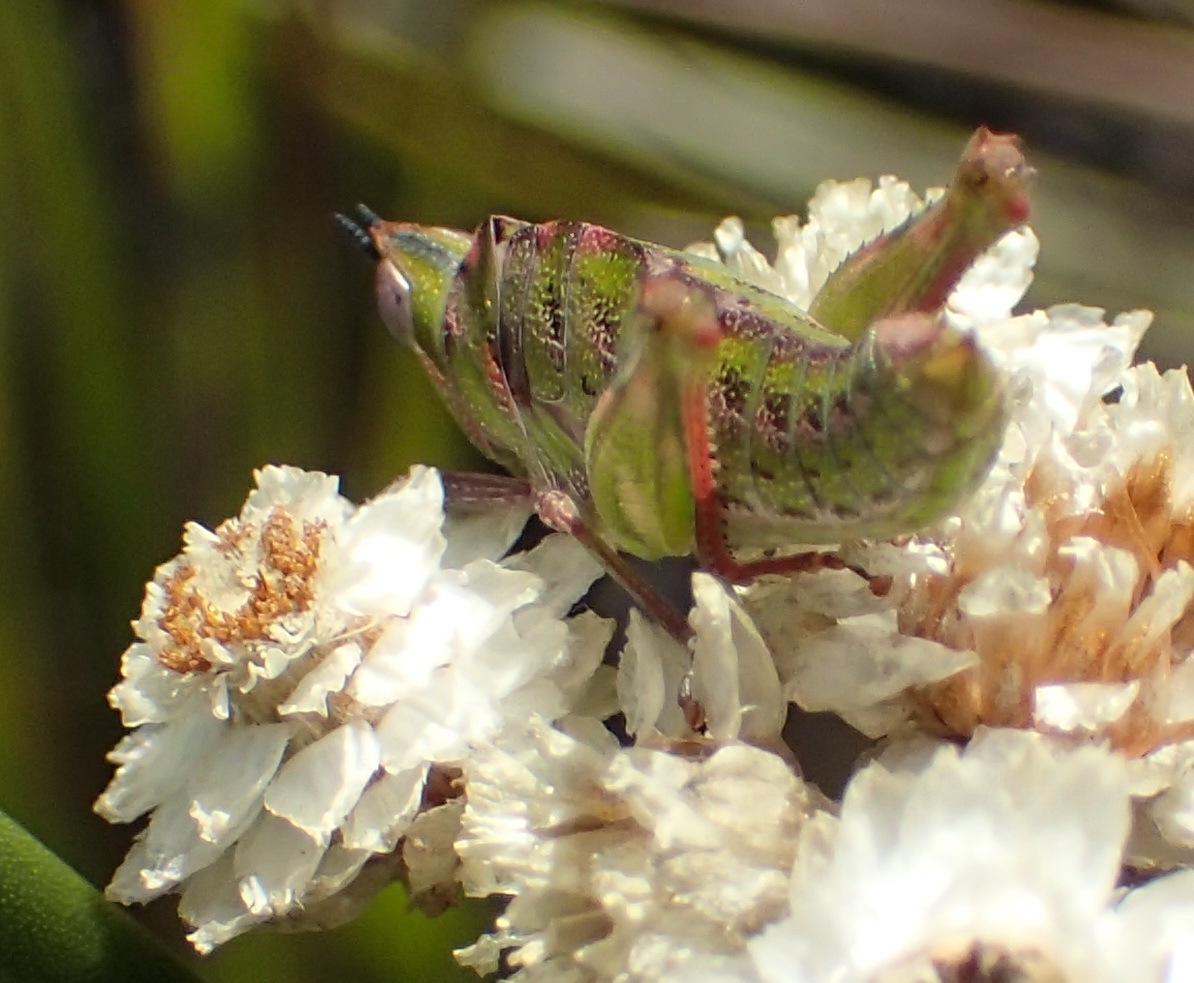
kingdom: Animalia
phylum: Arthropoda
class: Insecta
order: Orthoptera
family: Thericleidae
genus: Thericlesiella
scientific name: Thericlesiella meridionalis
